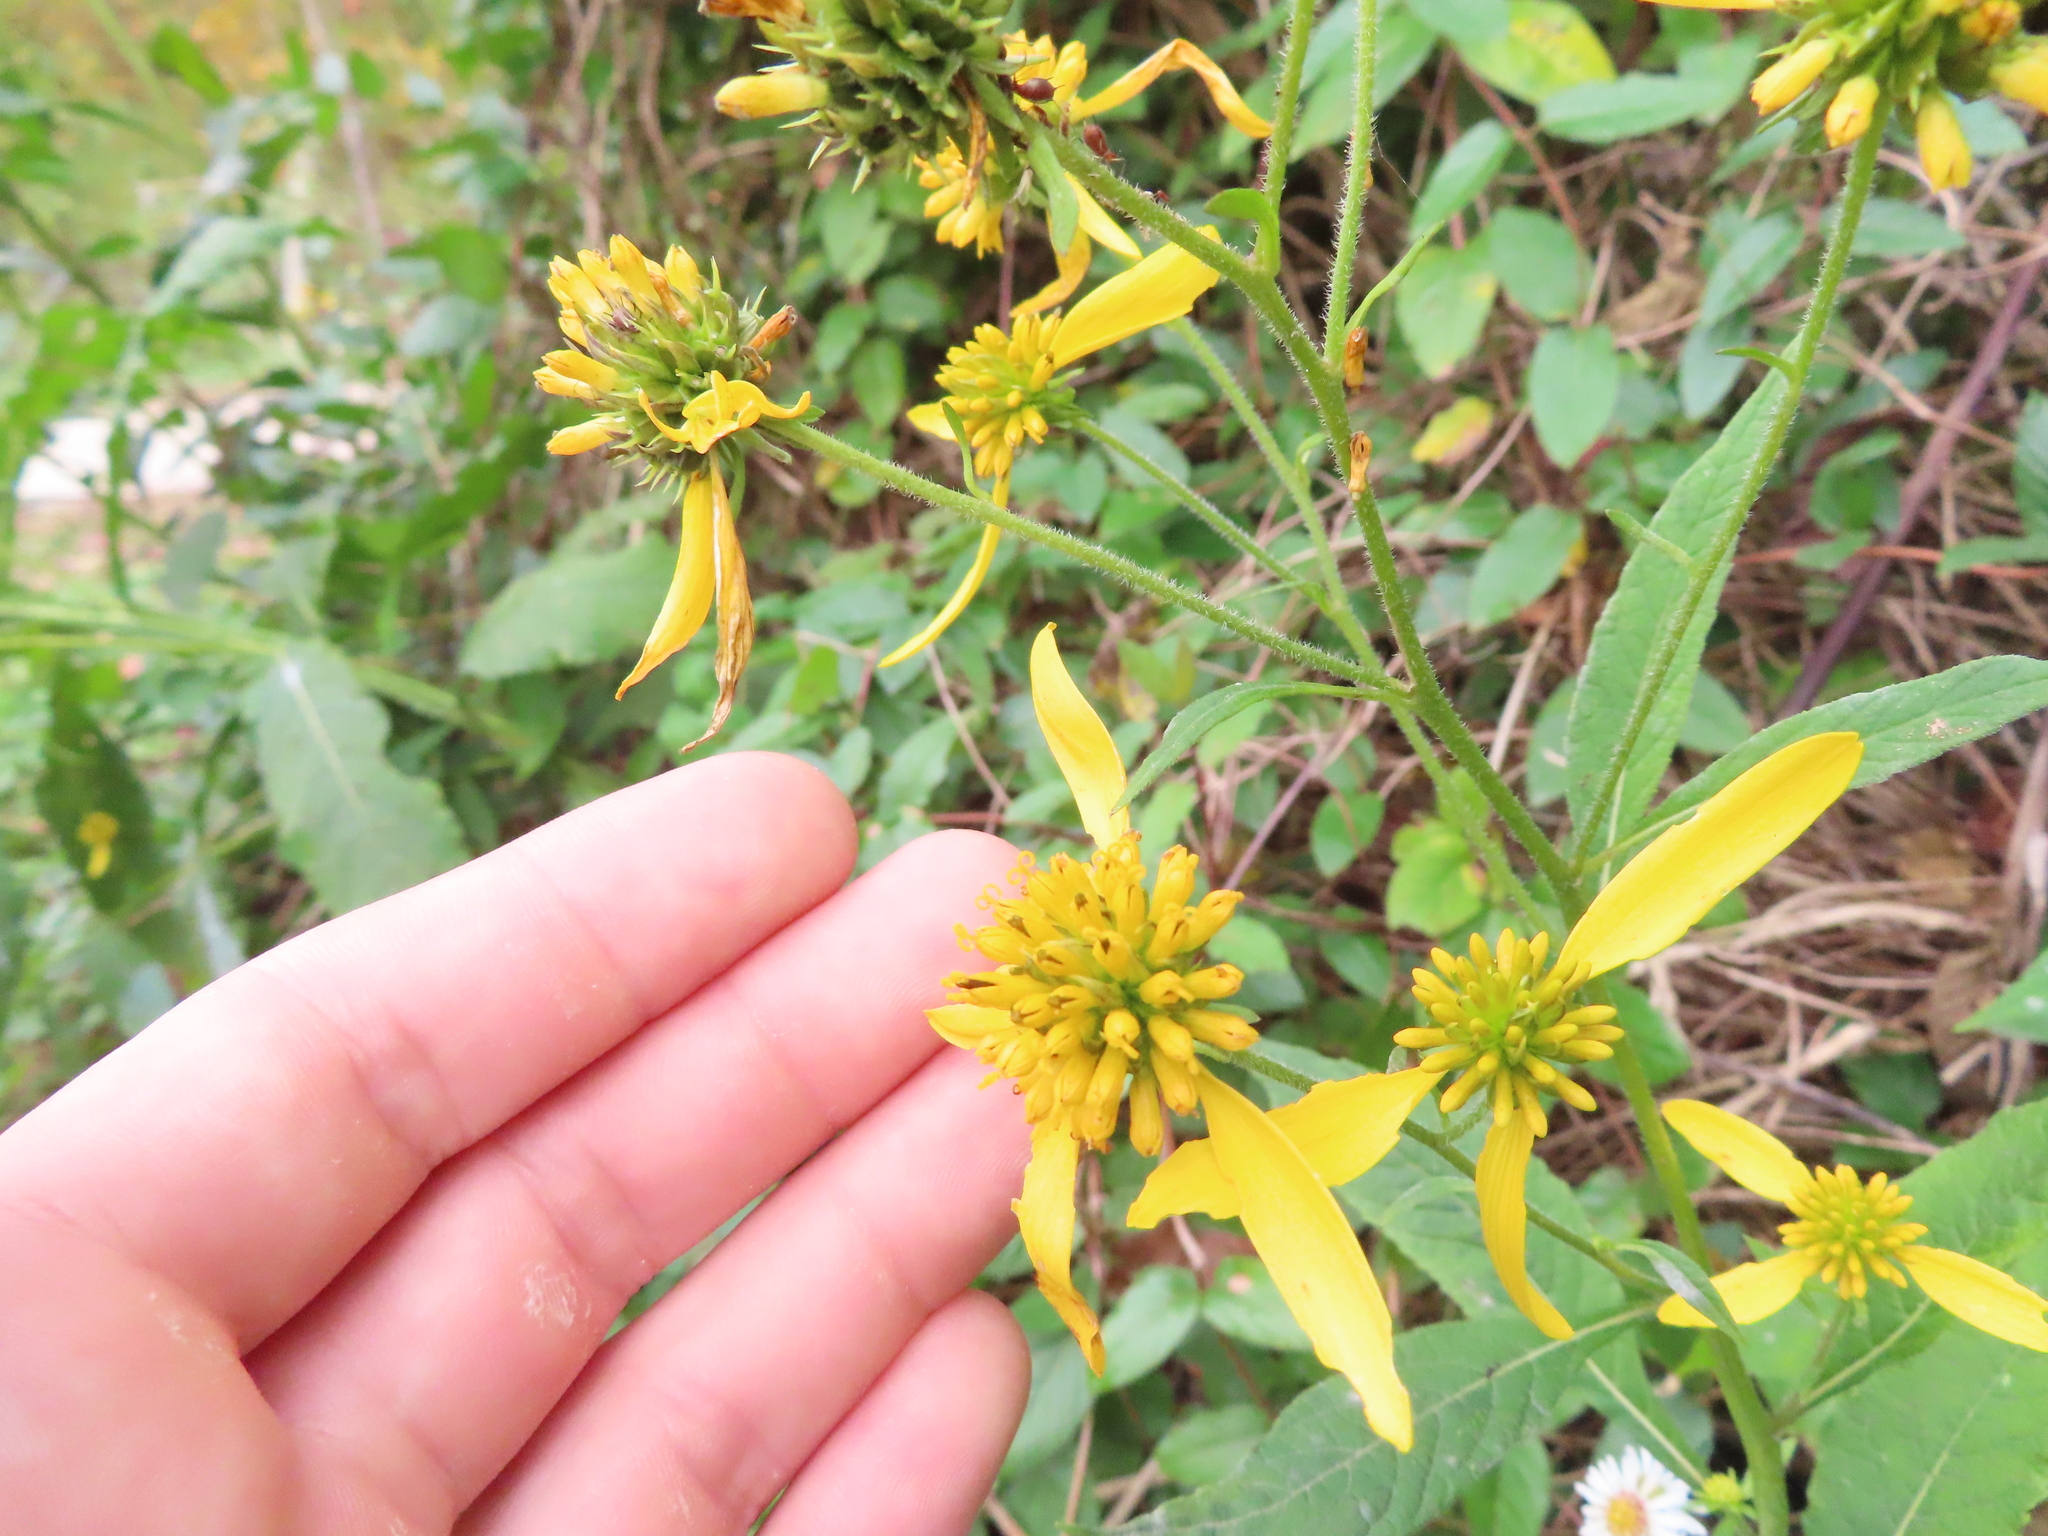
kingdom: Plantae
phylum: Tracheophyta
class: Magnoliopsida
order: Asterales
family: Asteraceae
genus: Verbesina
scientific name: Verbesina alternifolia
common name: Wingstem
